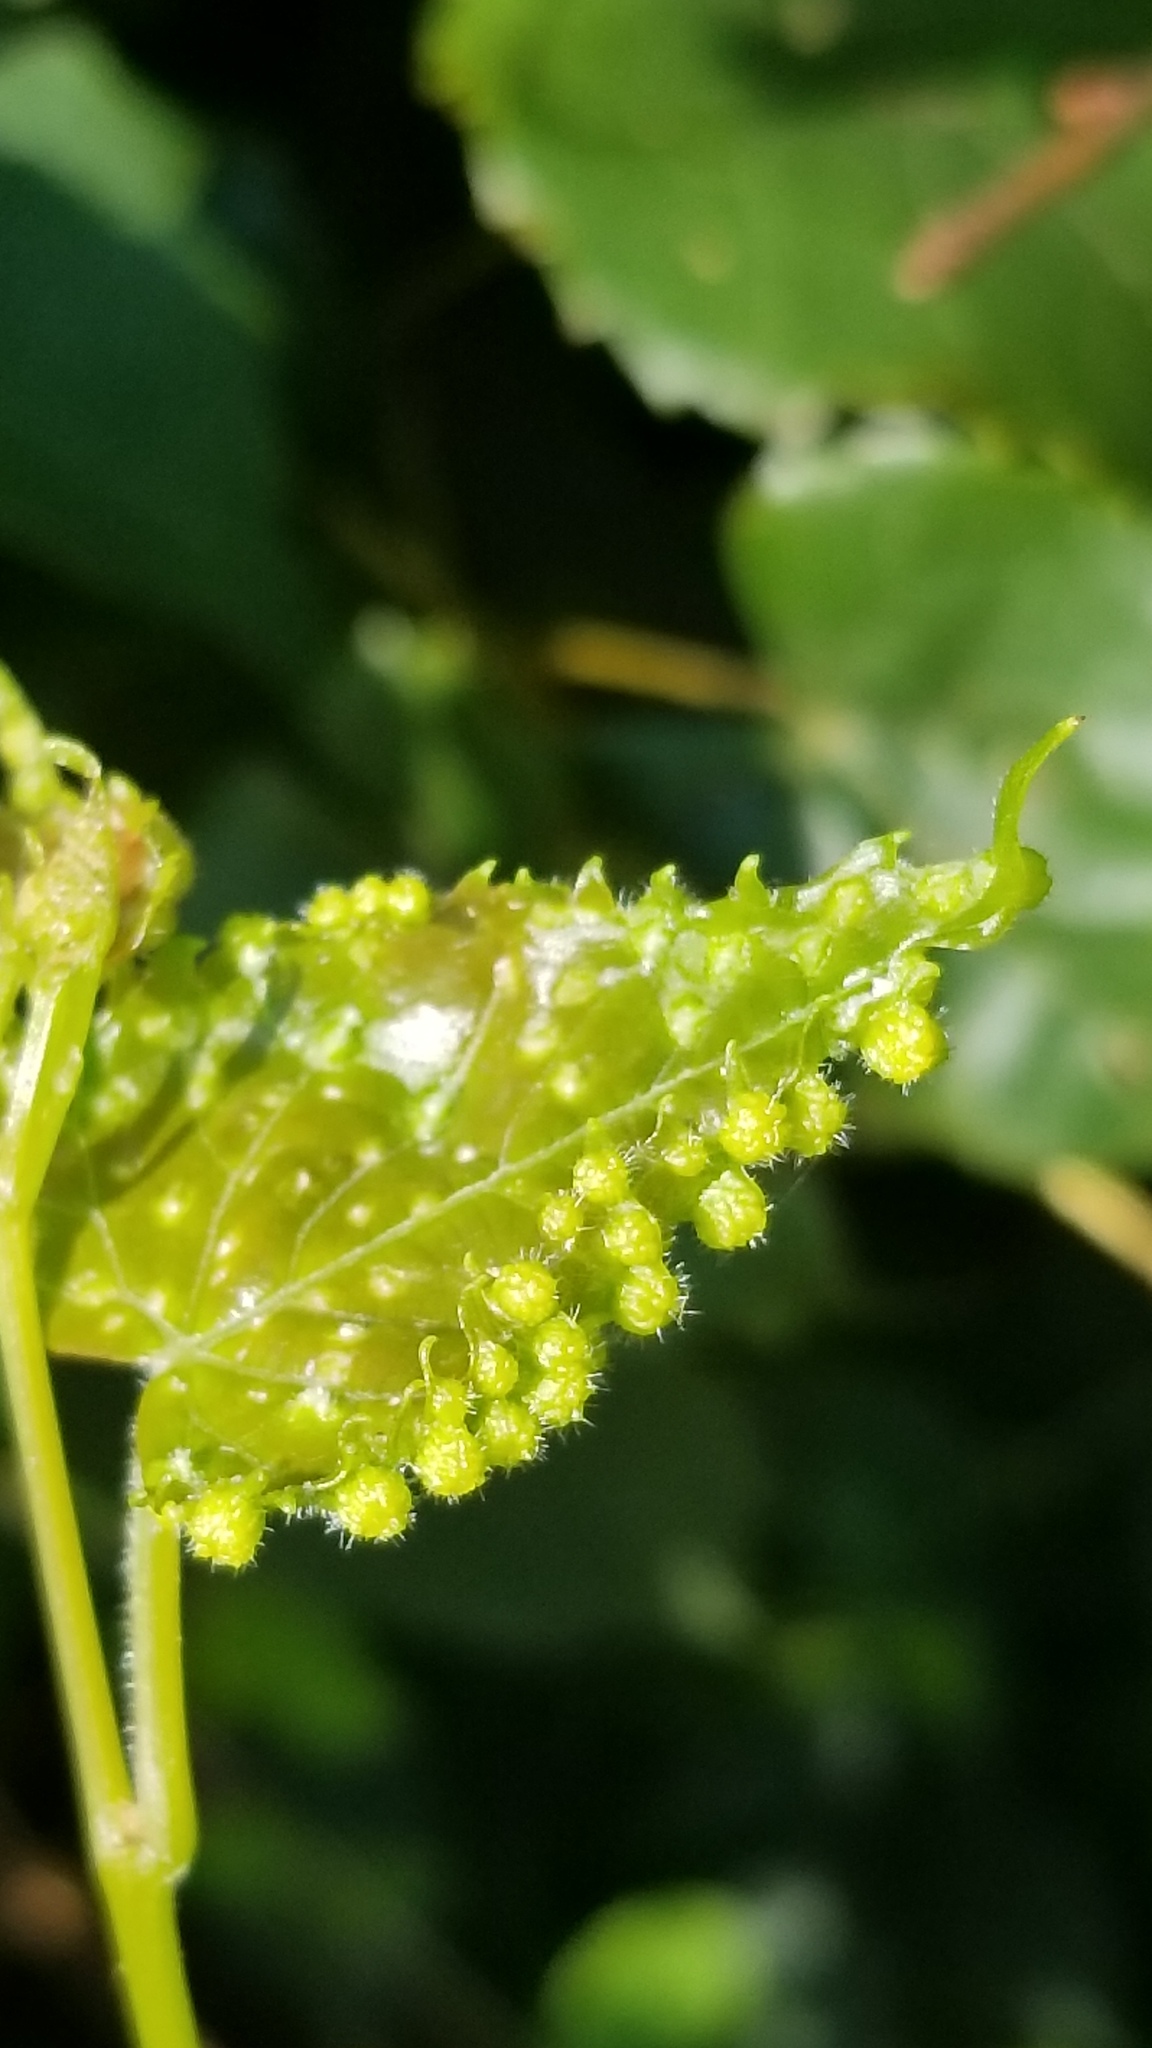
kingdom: Animalia
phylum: Arthropoda
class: Insecta
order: Hemiptera
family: Phylloxeridae
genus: Daktulosphaira
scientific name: Daktulosphaira vitifoliae
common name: Grape phylloxera
